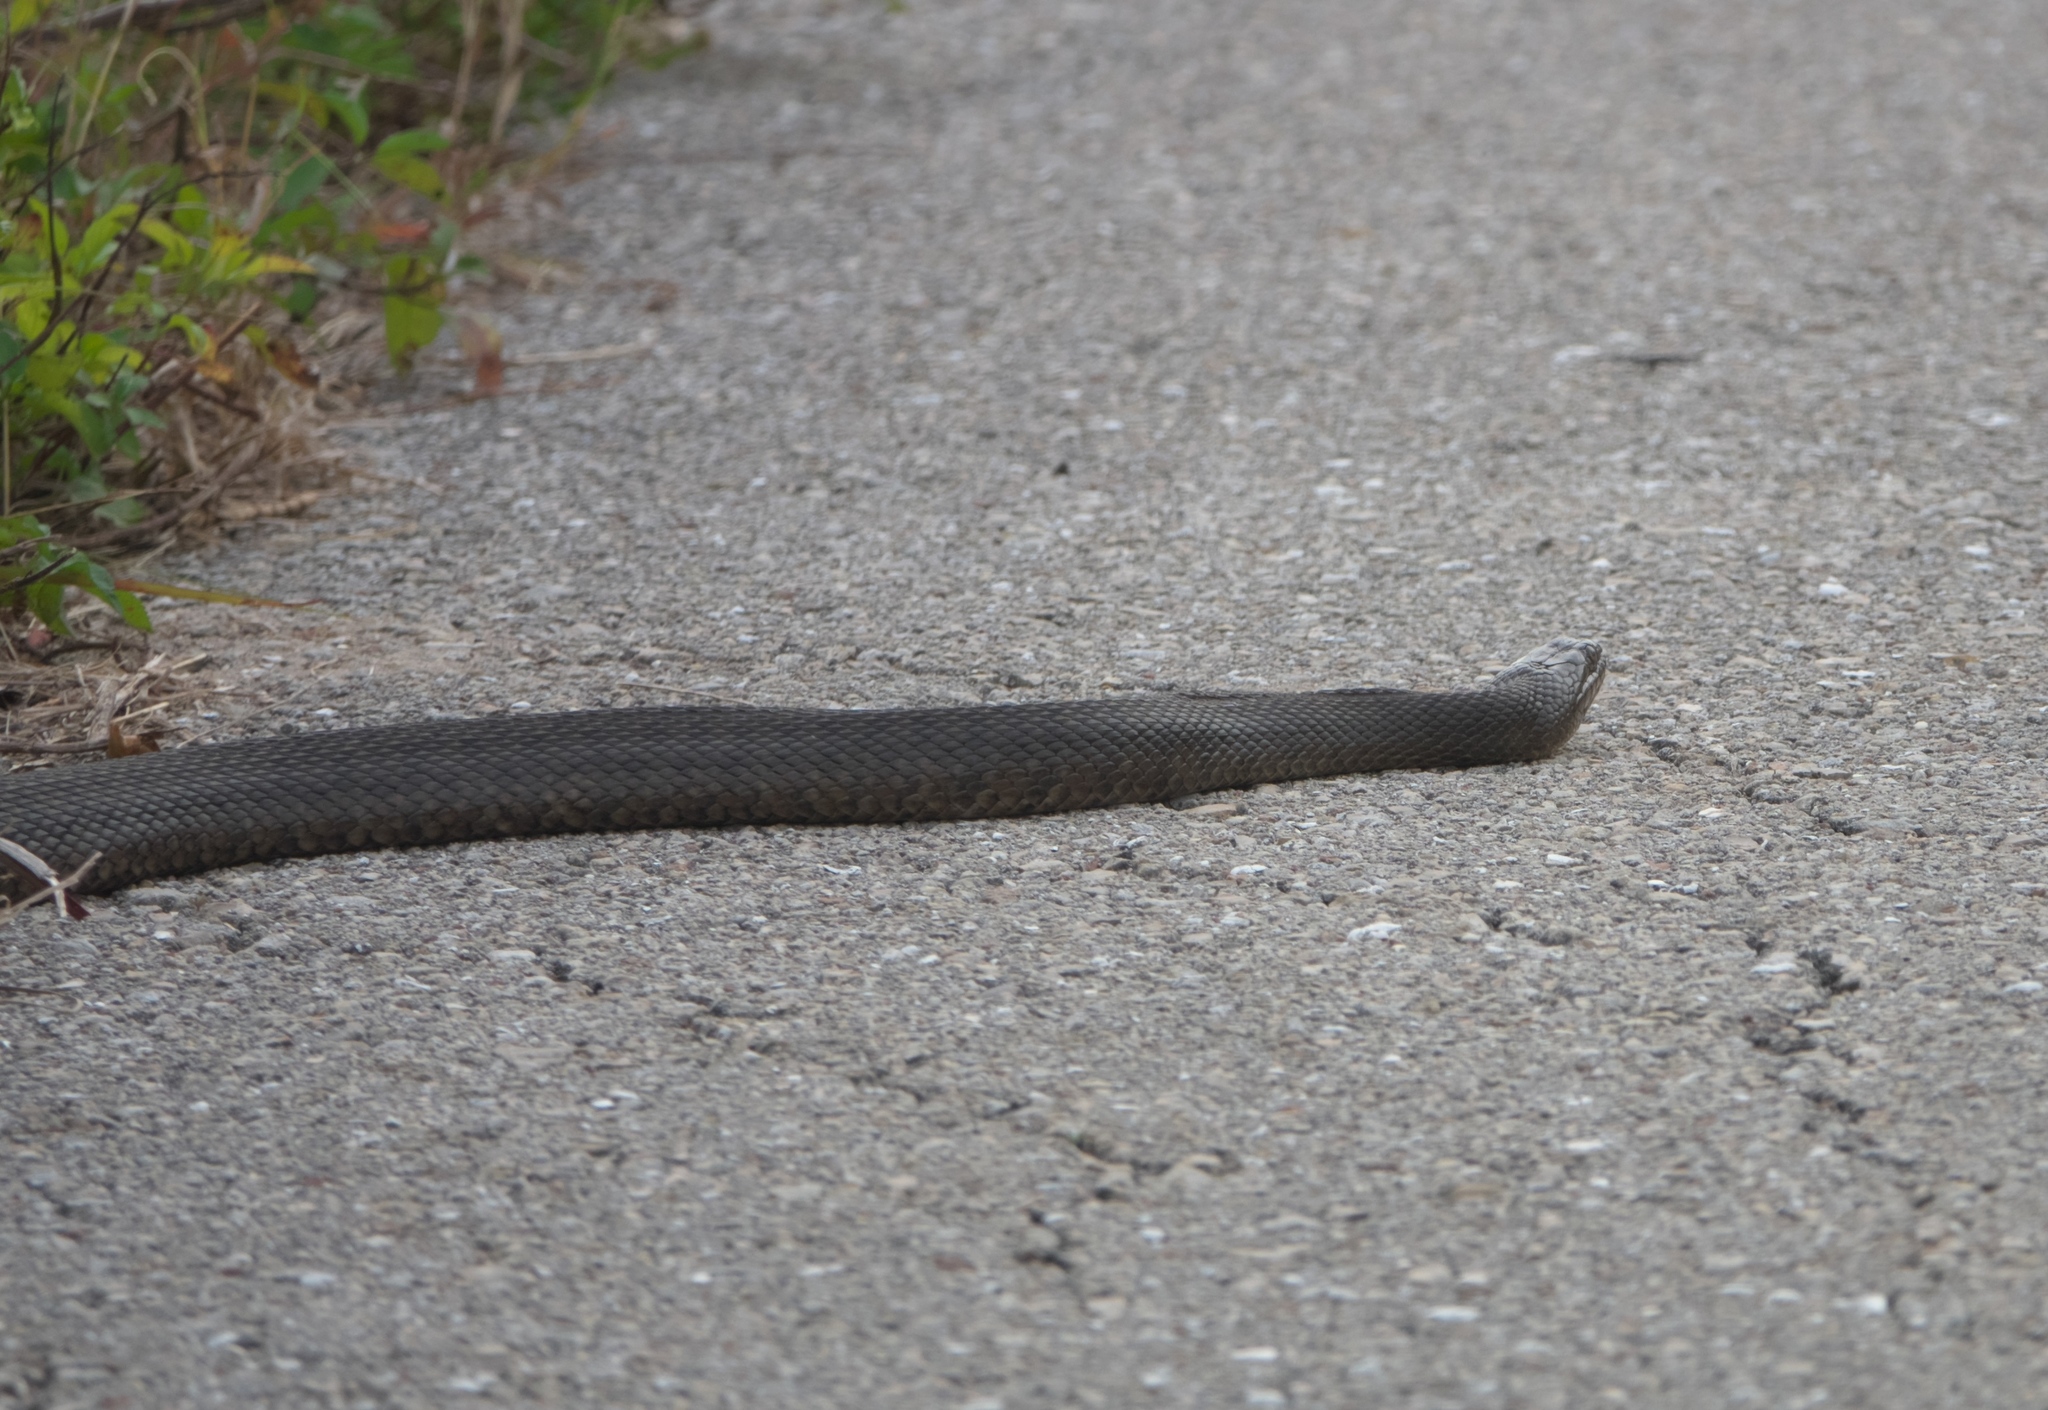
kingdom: Animalia
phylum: Chordata
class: Squamata
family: Colubridae
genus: Nerodia
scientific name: Nerodia floridana
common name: Florida green watersnake
